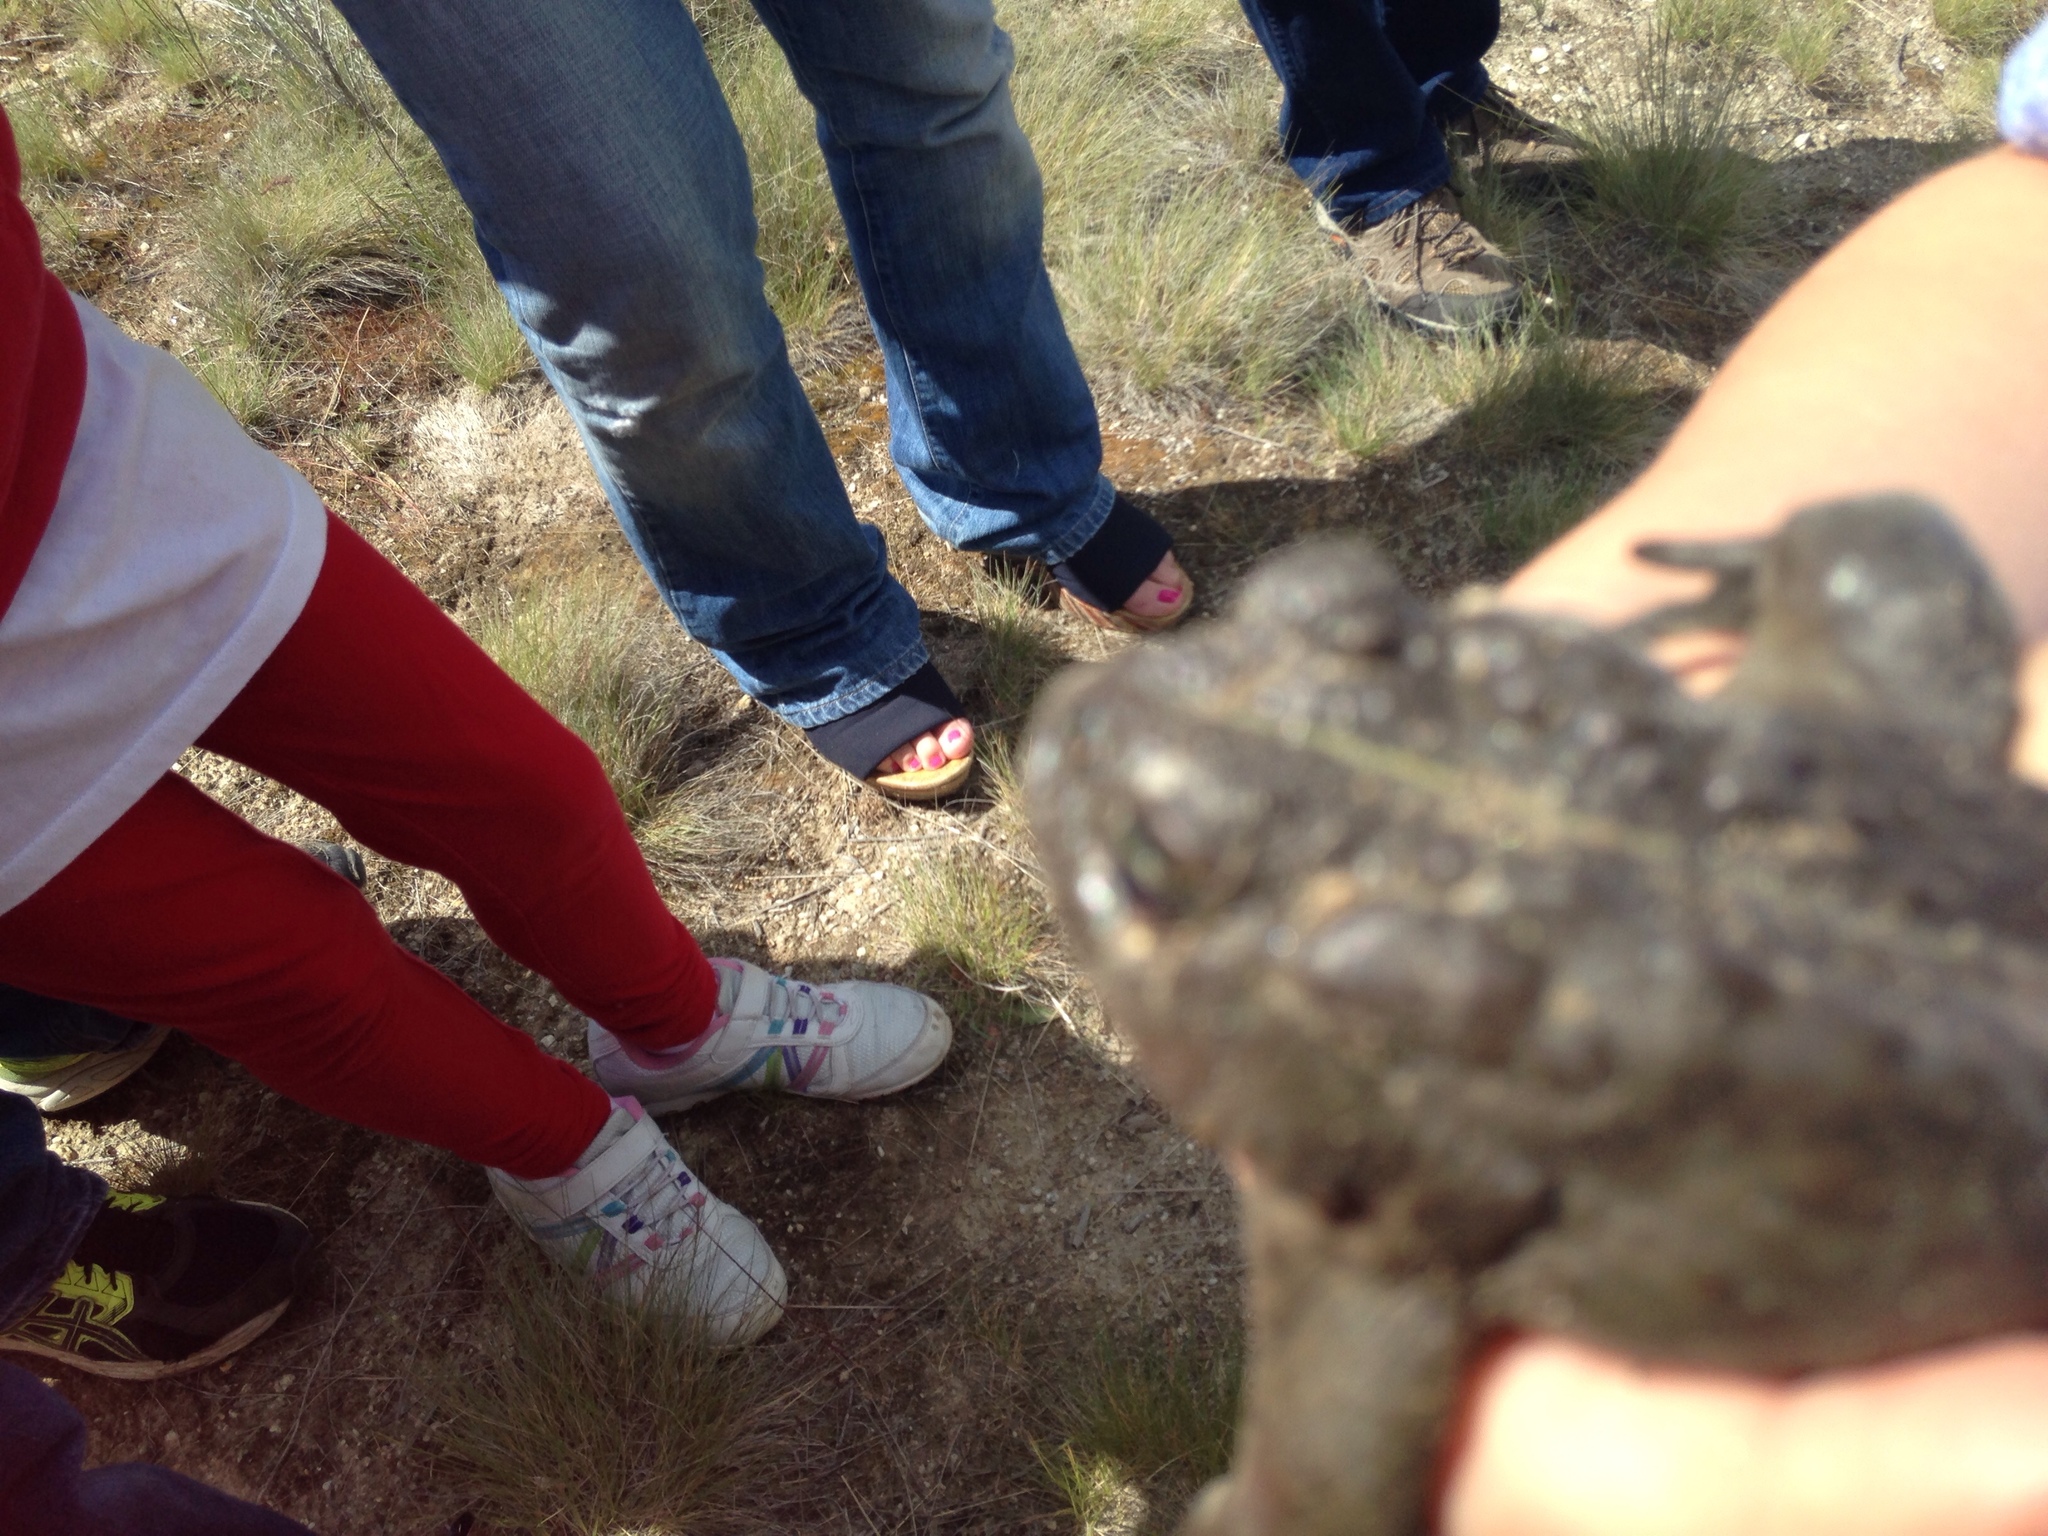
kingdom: Animalia
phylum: Chordata
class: Amphibia
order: Anura
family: Bufonidae
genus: Anaxyrus
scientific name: Anaxyrus boreas
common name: Western toad
